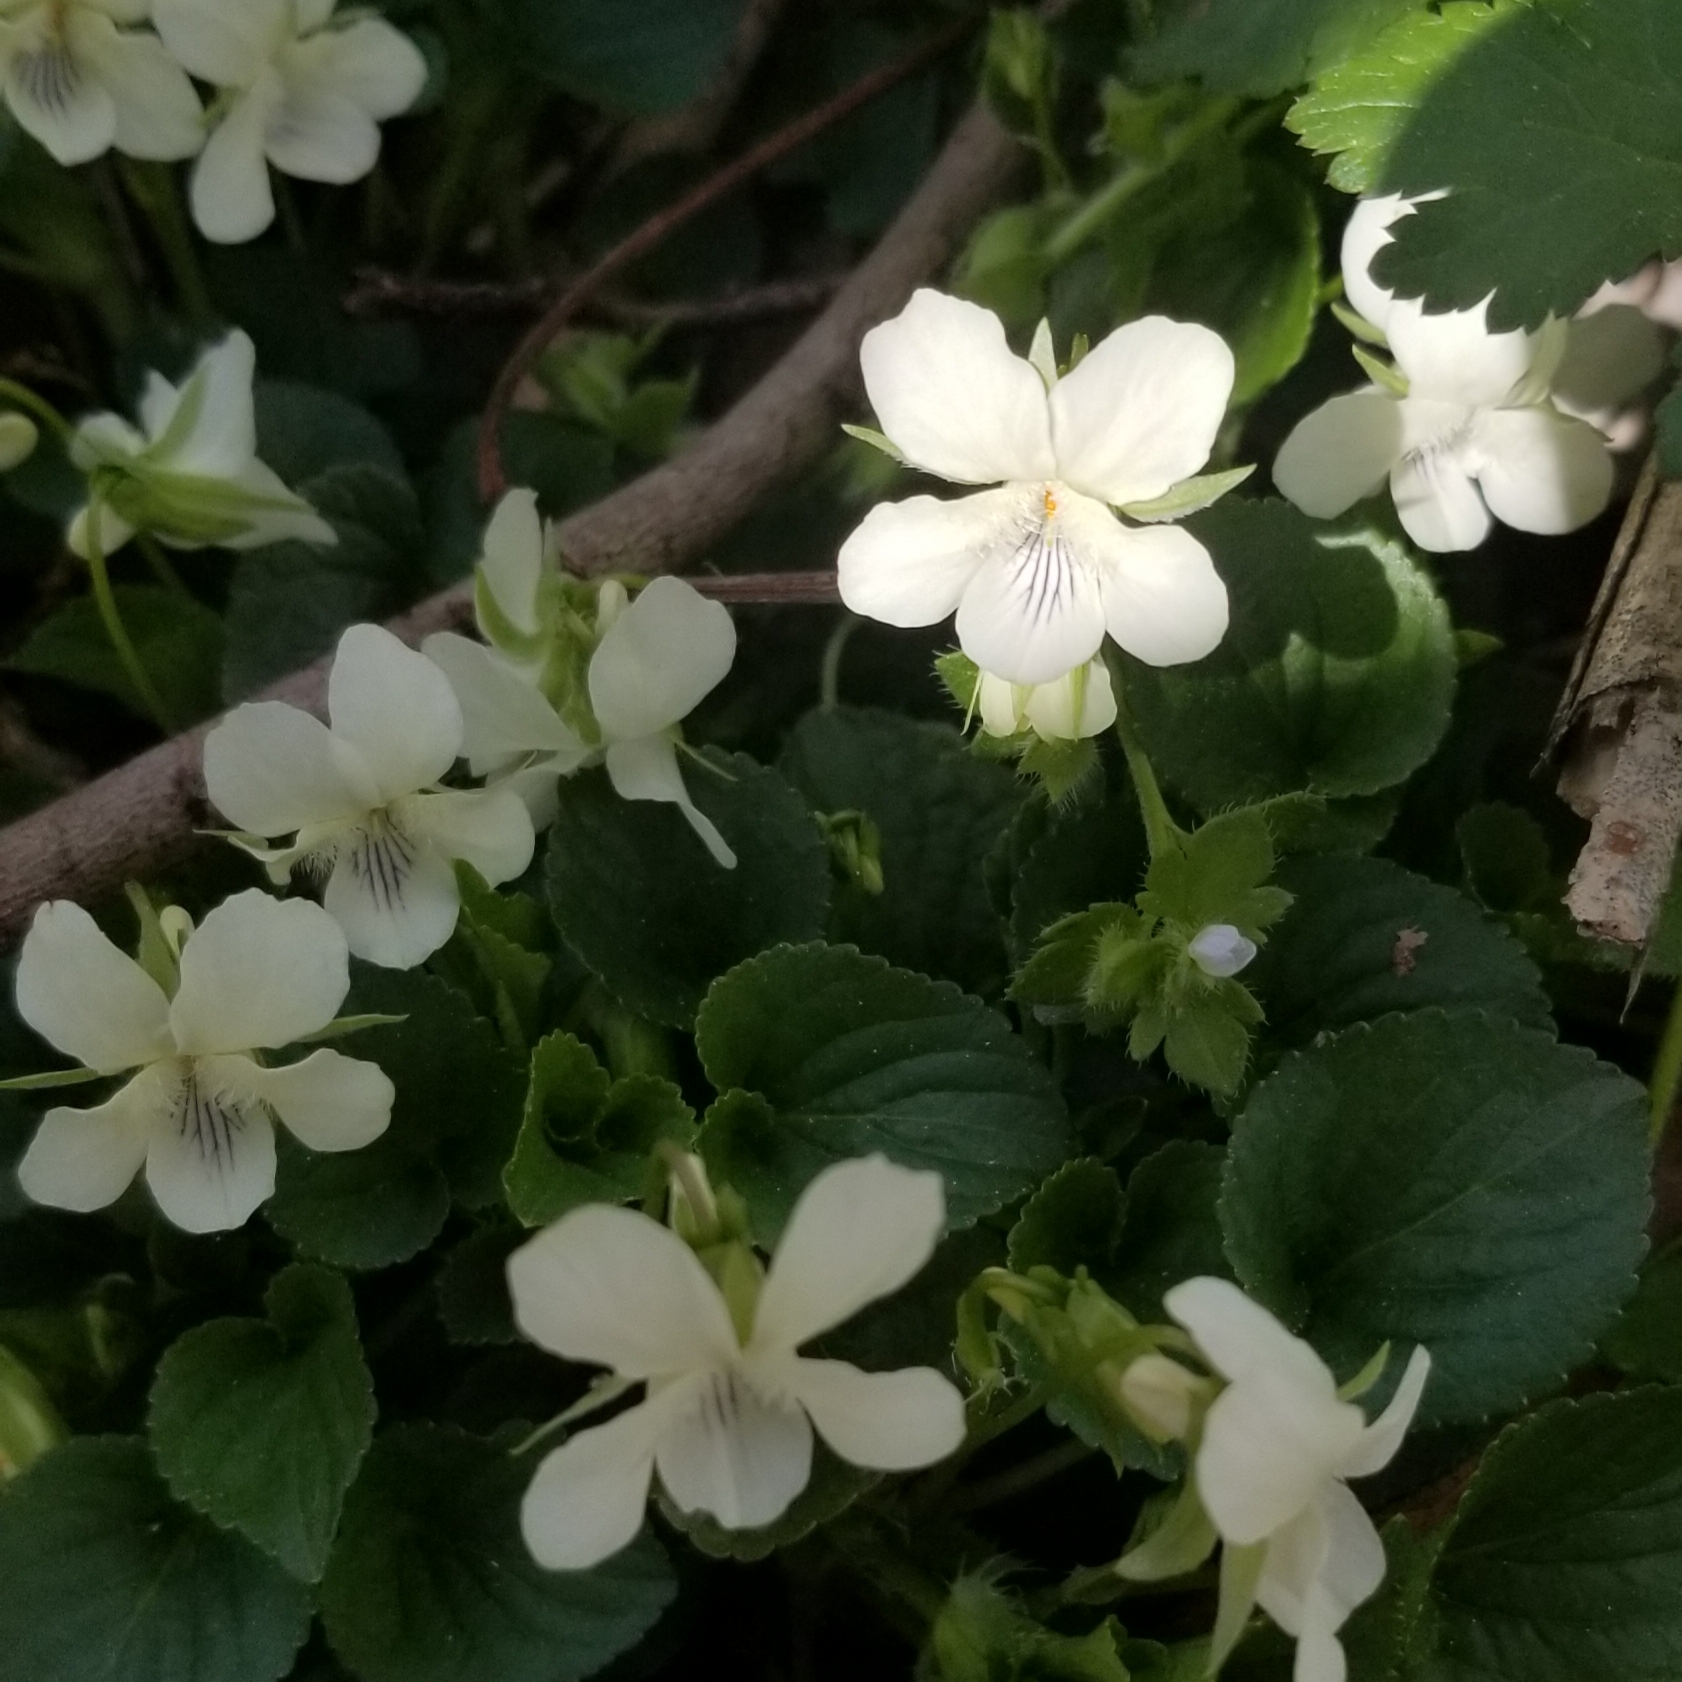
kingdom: Plantae
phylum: Tracheophyta
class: Magnoliopsida
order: Malpighiales
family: Violaceae
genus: Viola
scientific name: Viola striata
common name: Cream violet
